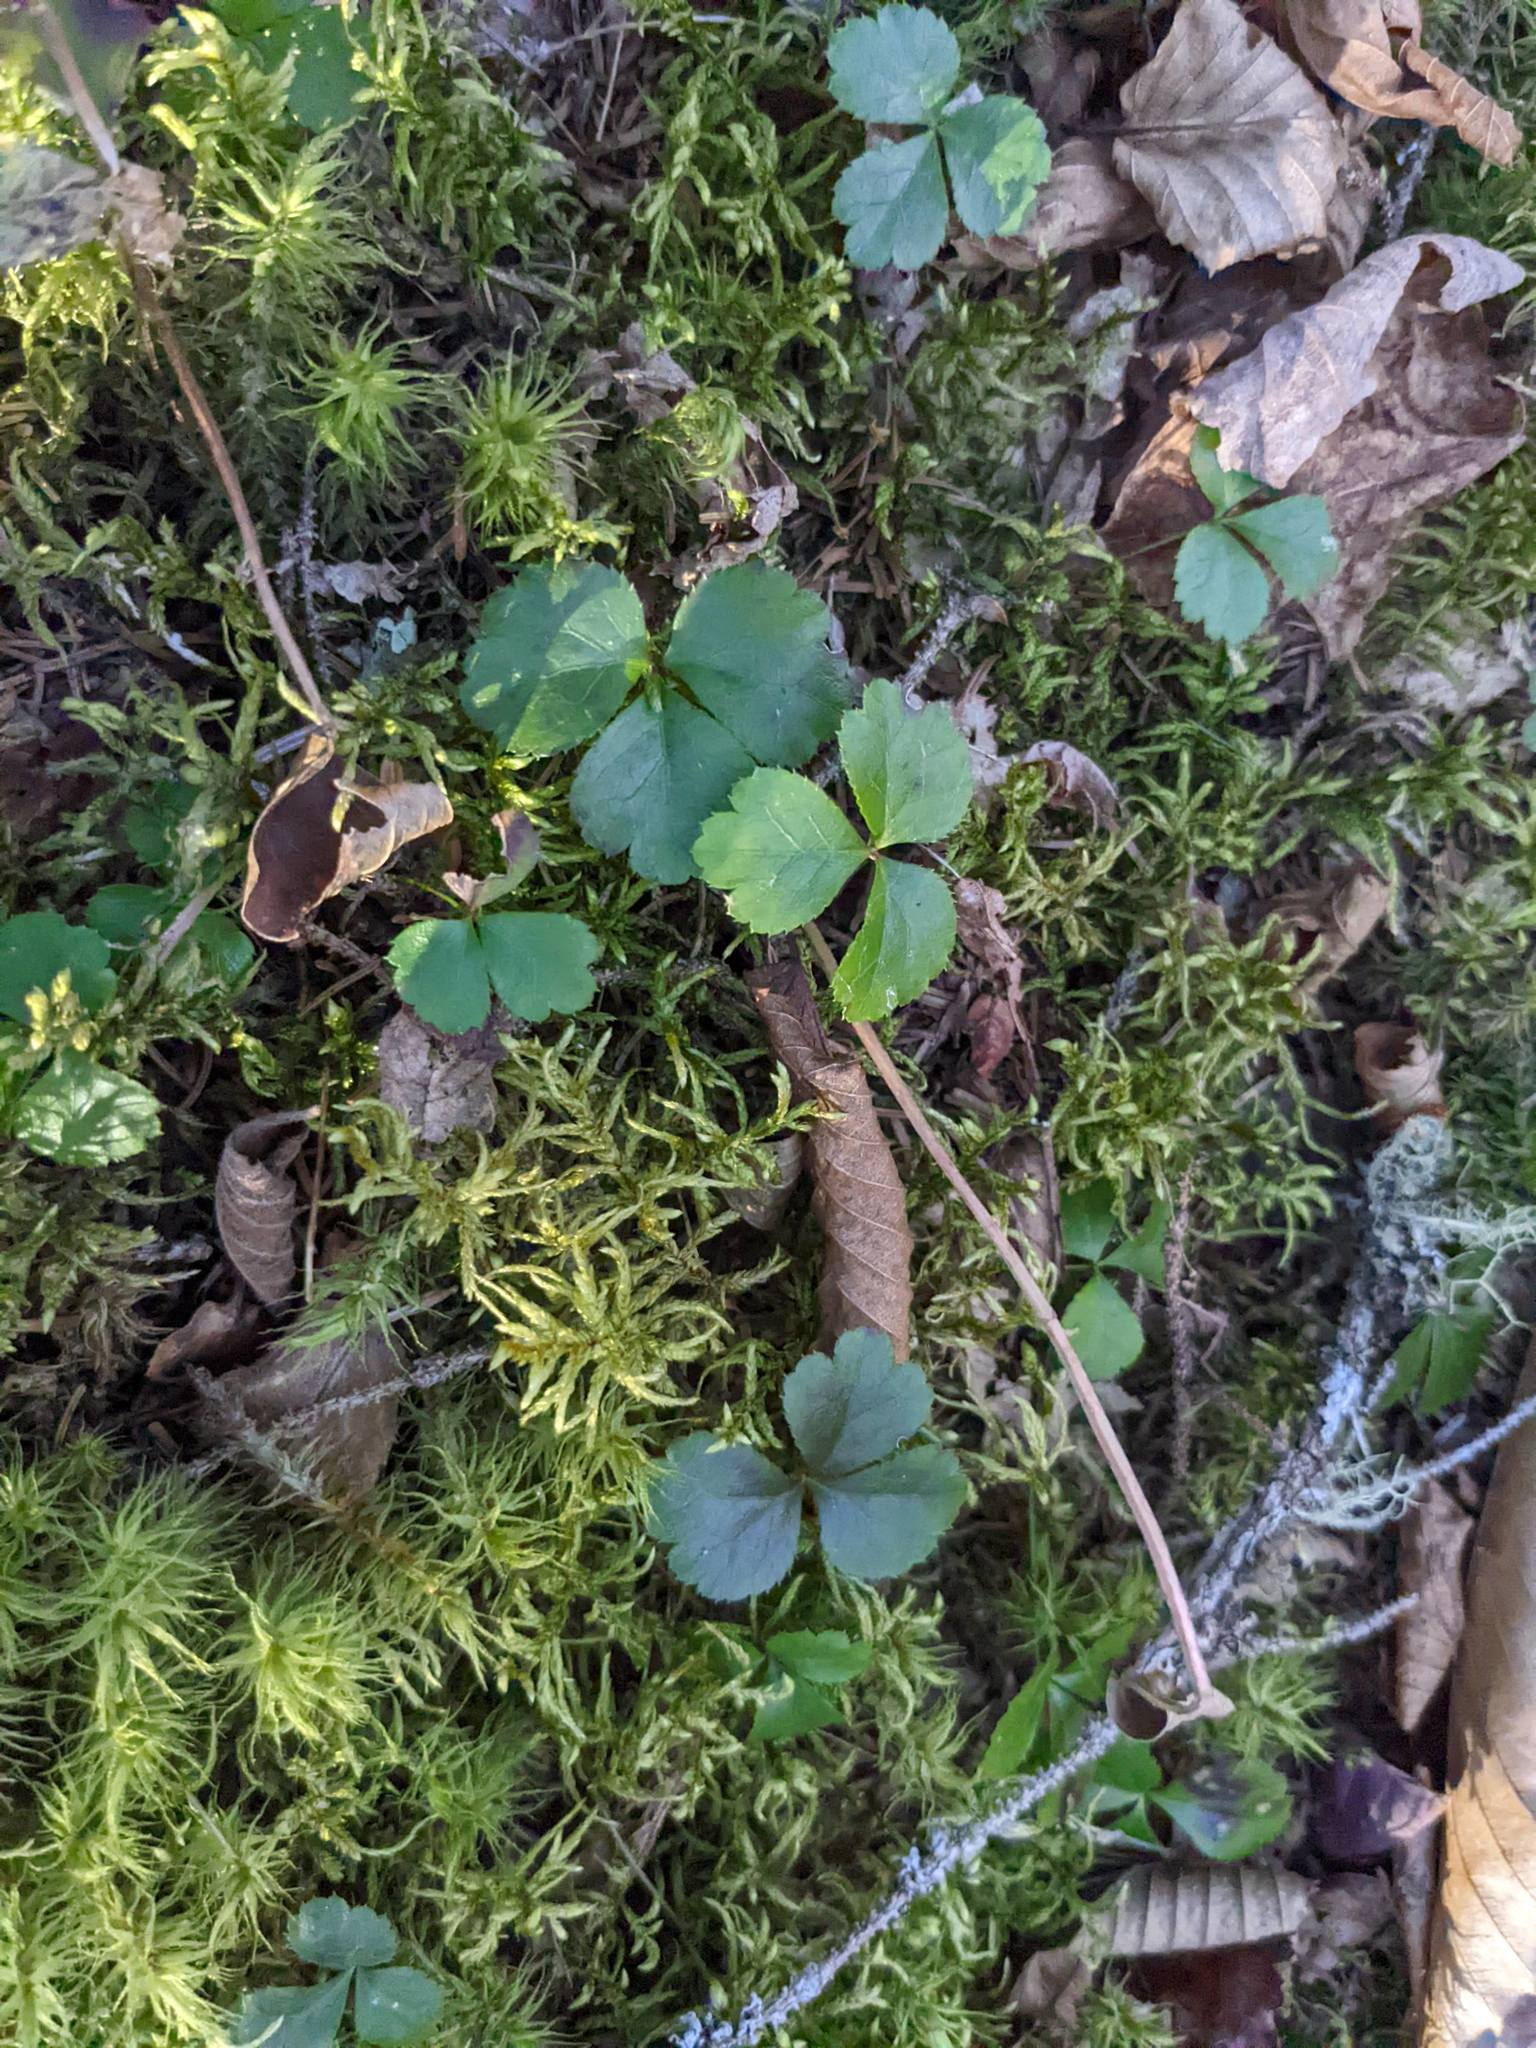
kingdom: Plantae
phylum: Tracheophyta
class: Magnoliopsida
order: Ranunculales
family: Ranunculaceae
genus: Coptis
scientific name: Coptis trifolia
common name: Canker-root
